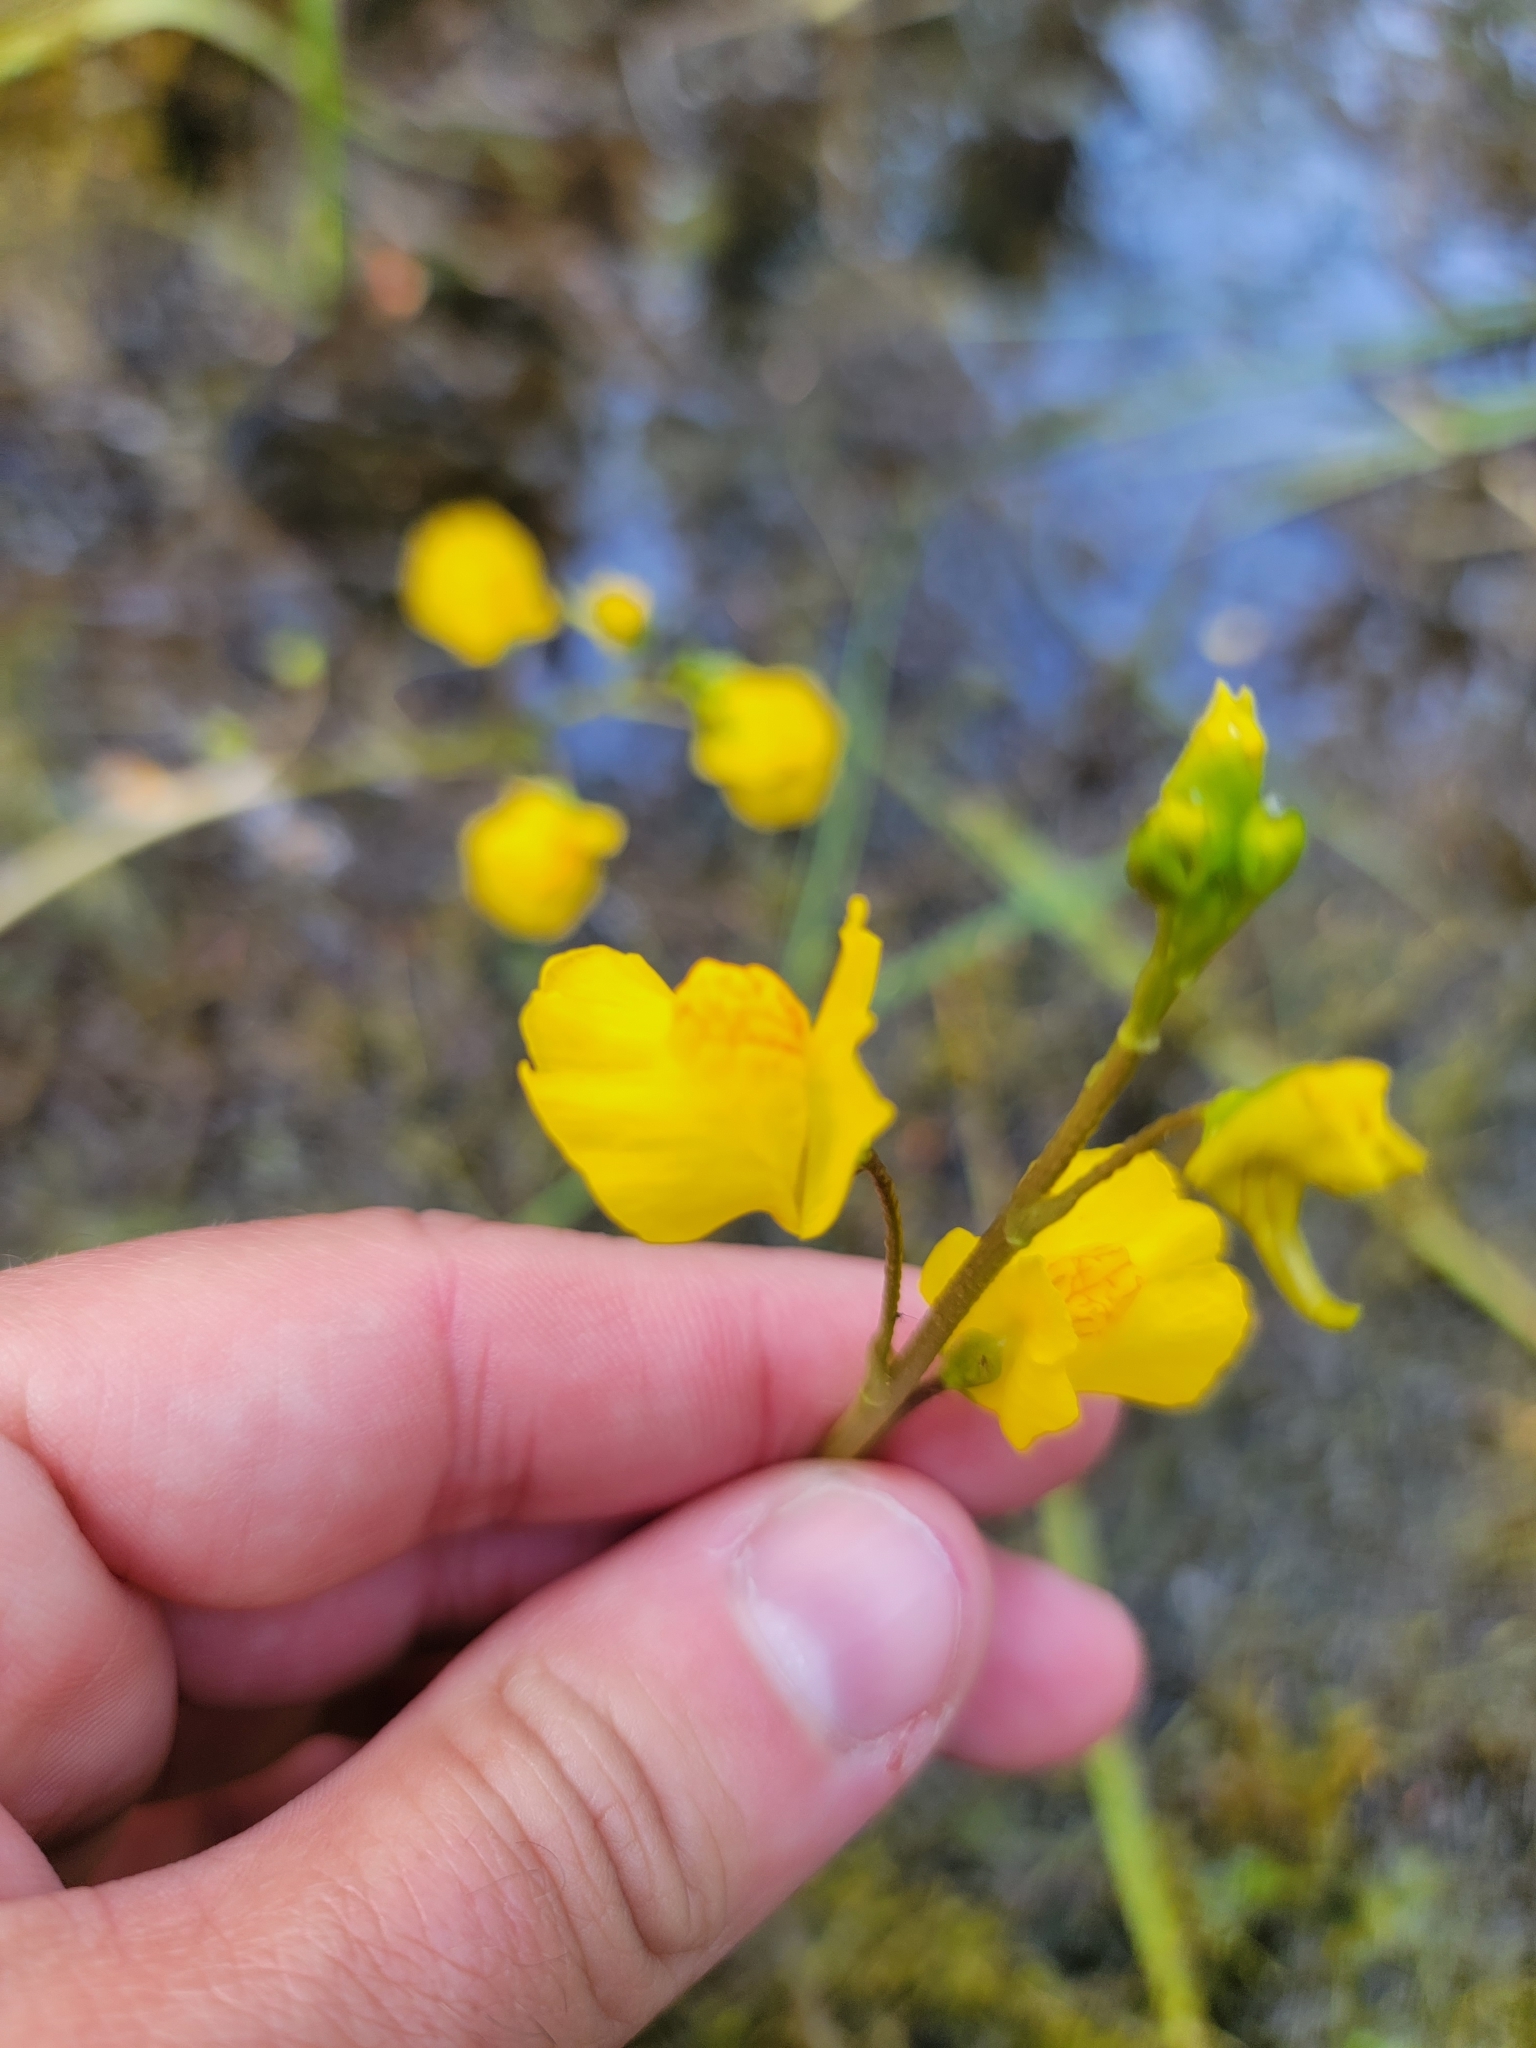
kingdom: Plantae
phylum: Tracheophyta
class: Magnoliopsida
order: Lamiales
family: Lentibulariaceae
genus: Utricularia
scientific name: Utricularia macrorhiza
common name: Common bladderwort
